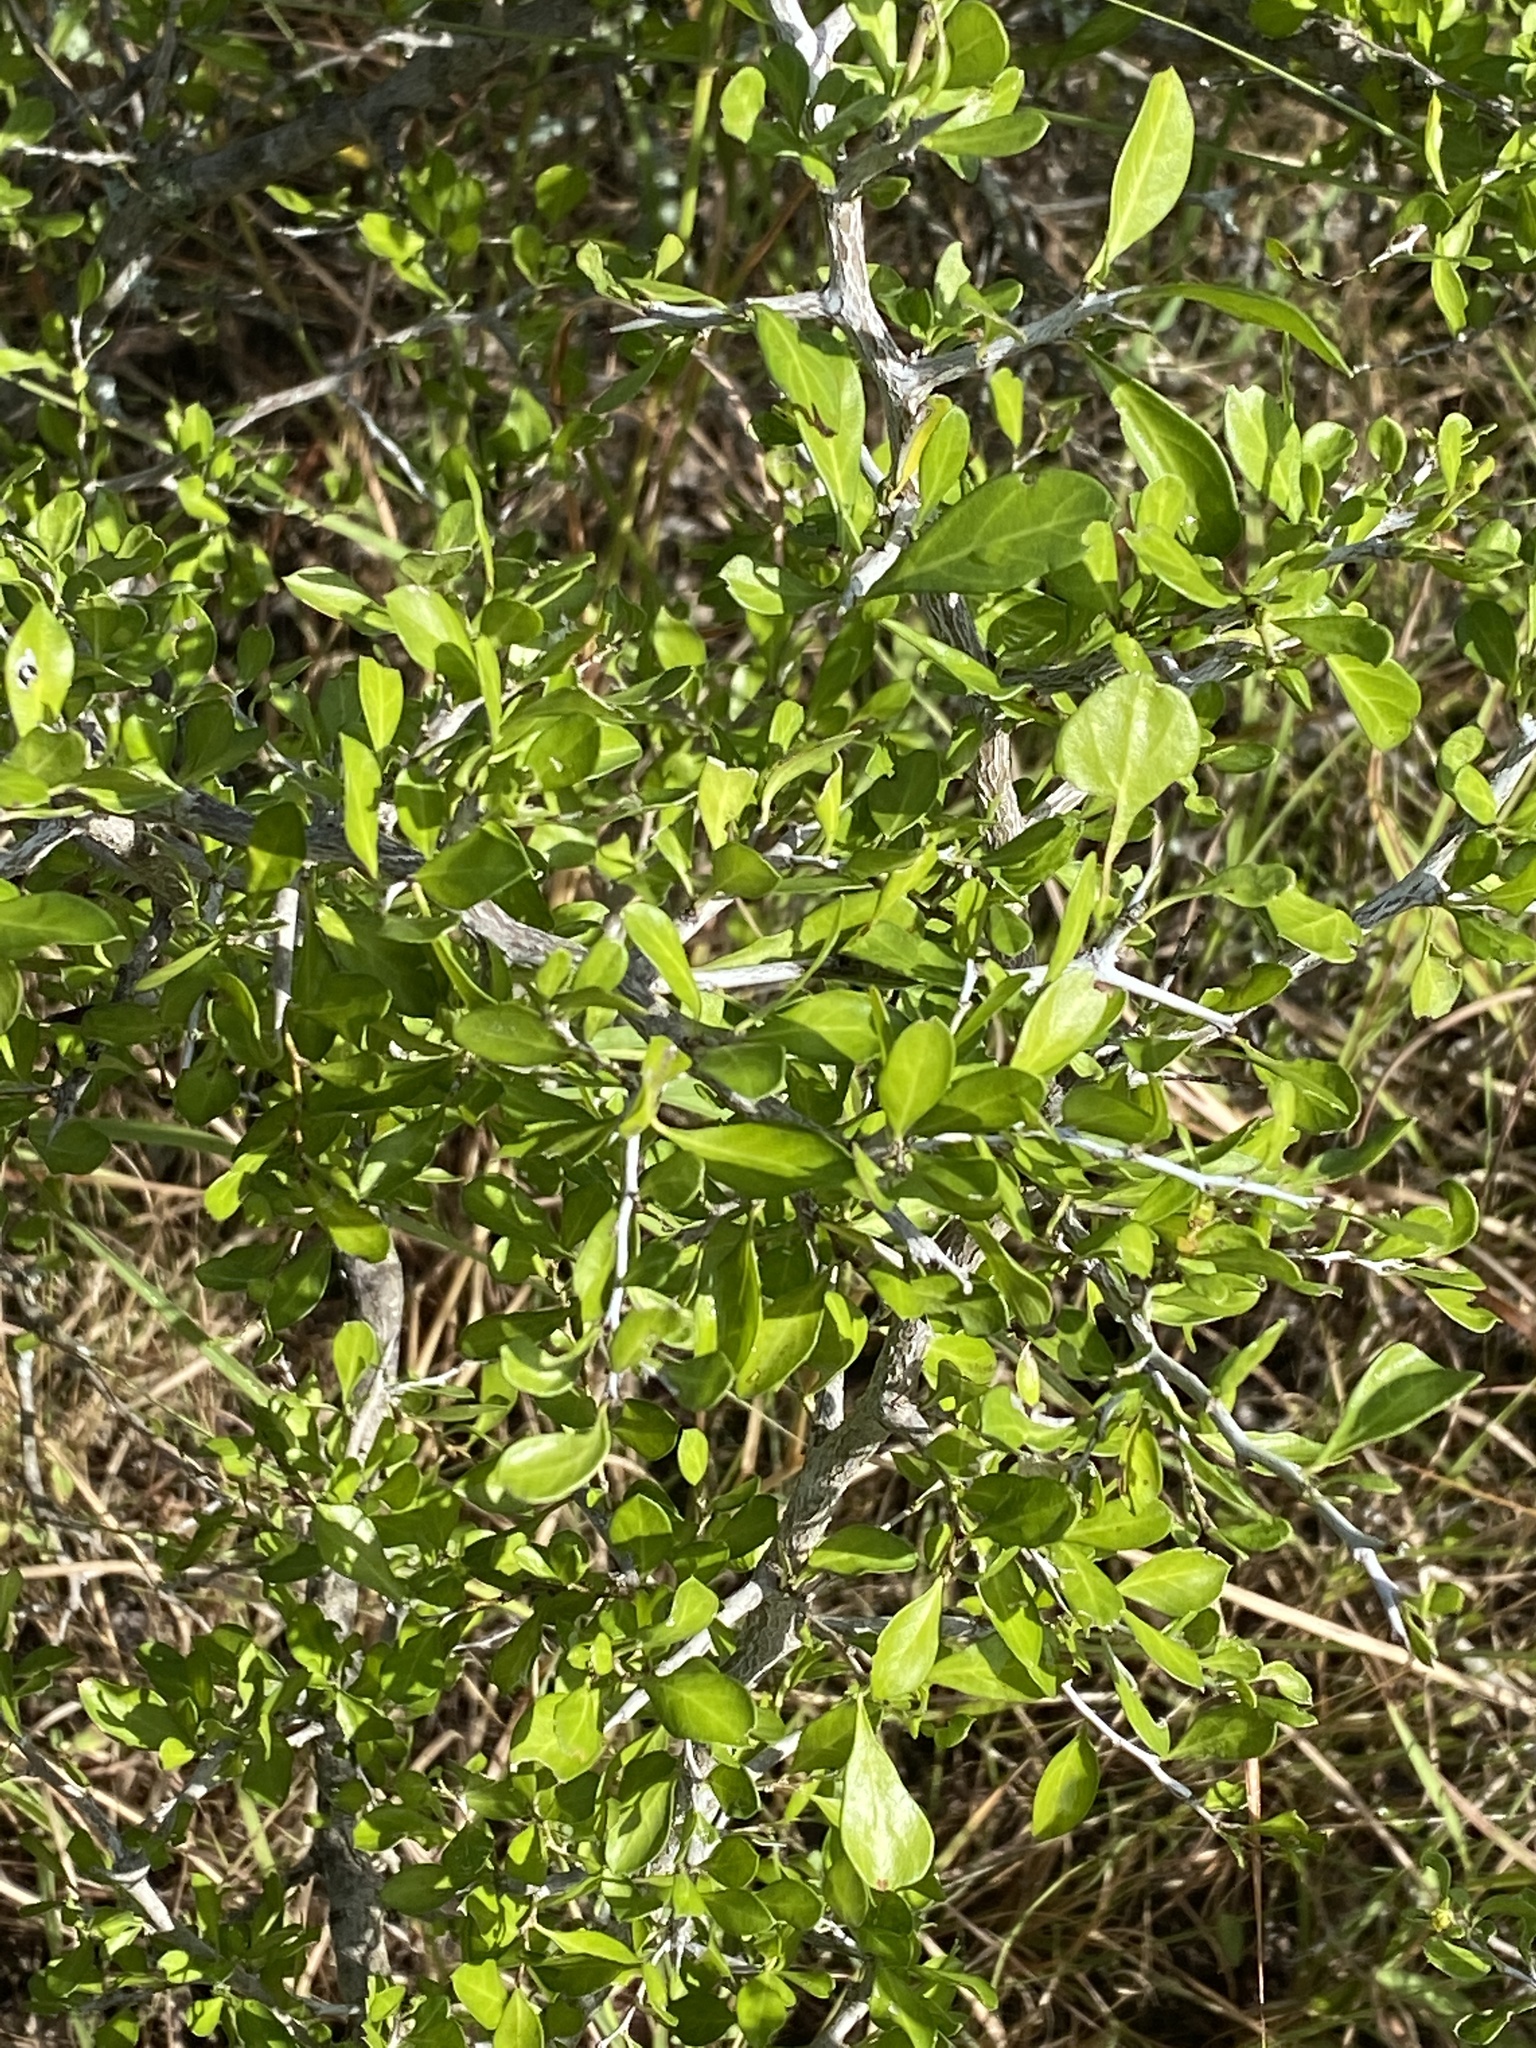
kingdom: Plantae
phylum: Tracheophyta
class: Magnoliopsida
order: Rosales
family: Rhamnaceae
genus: Condalia
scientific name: Condalia hookeri
